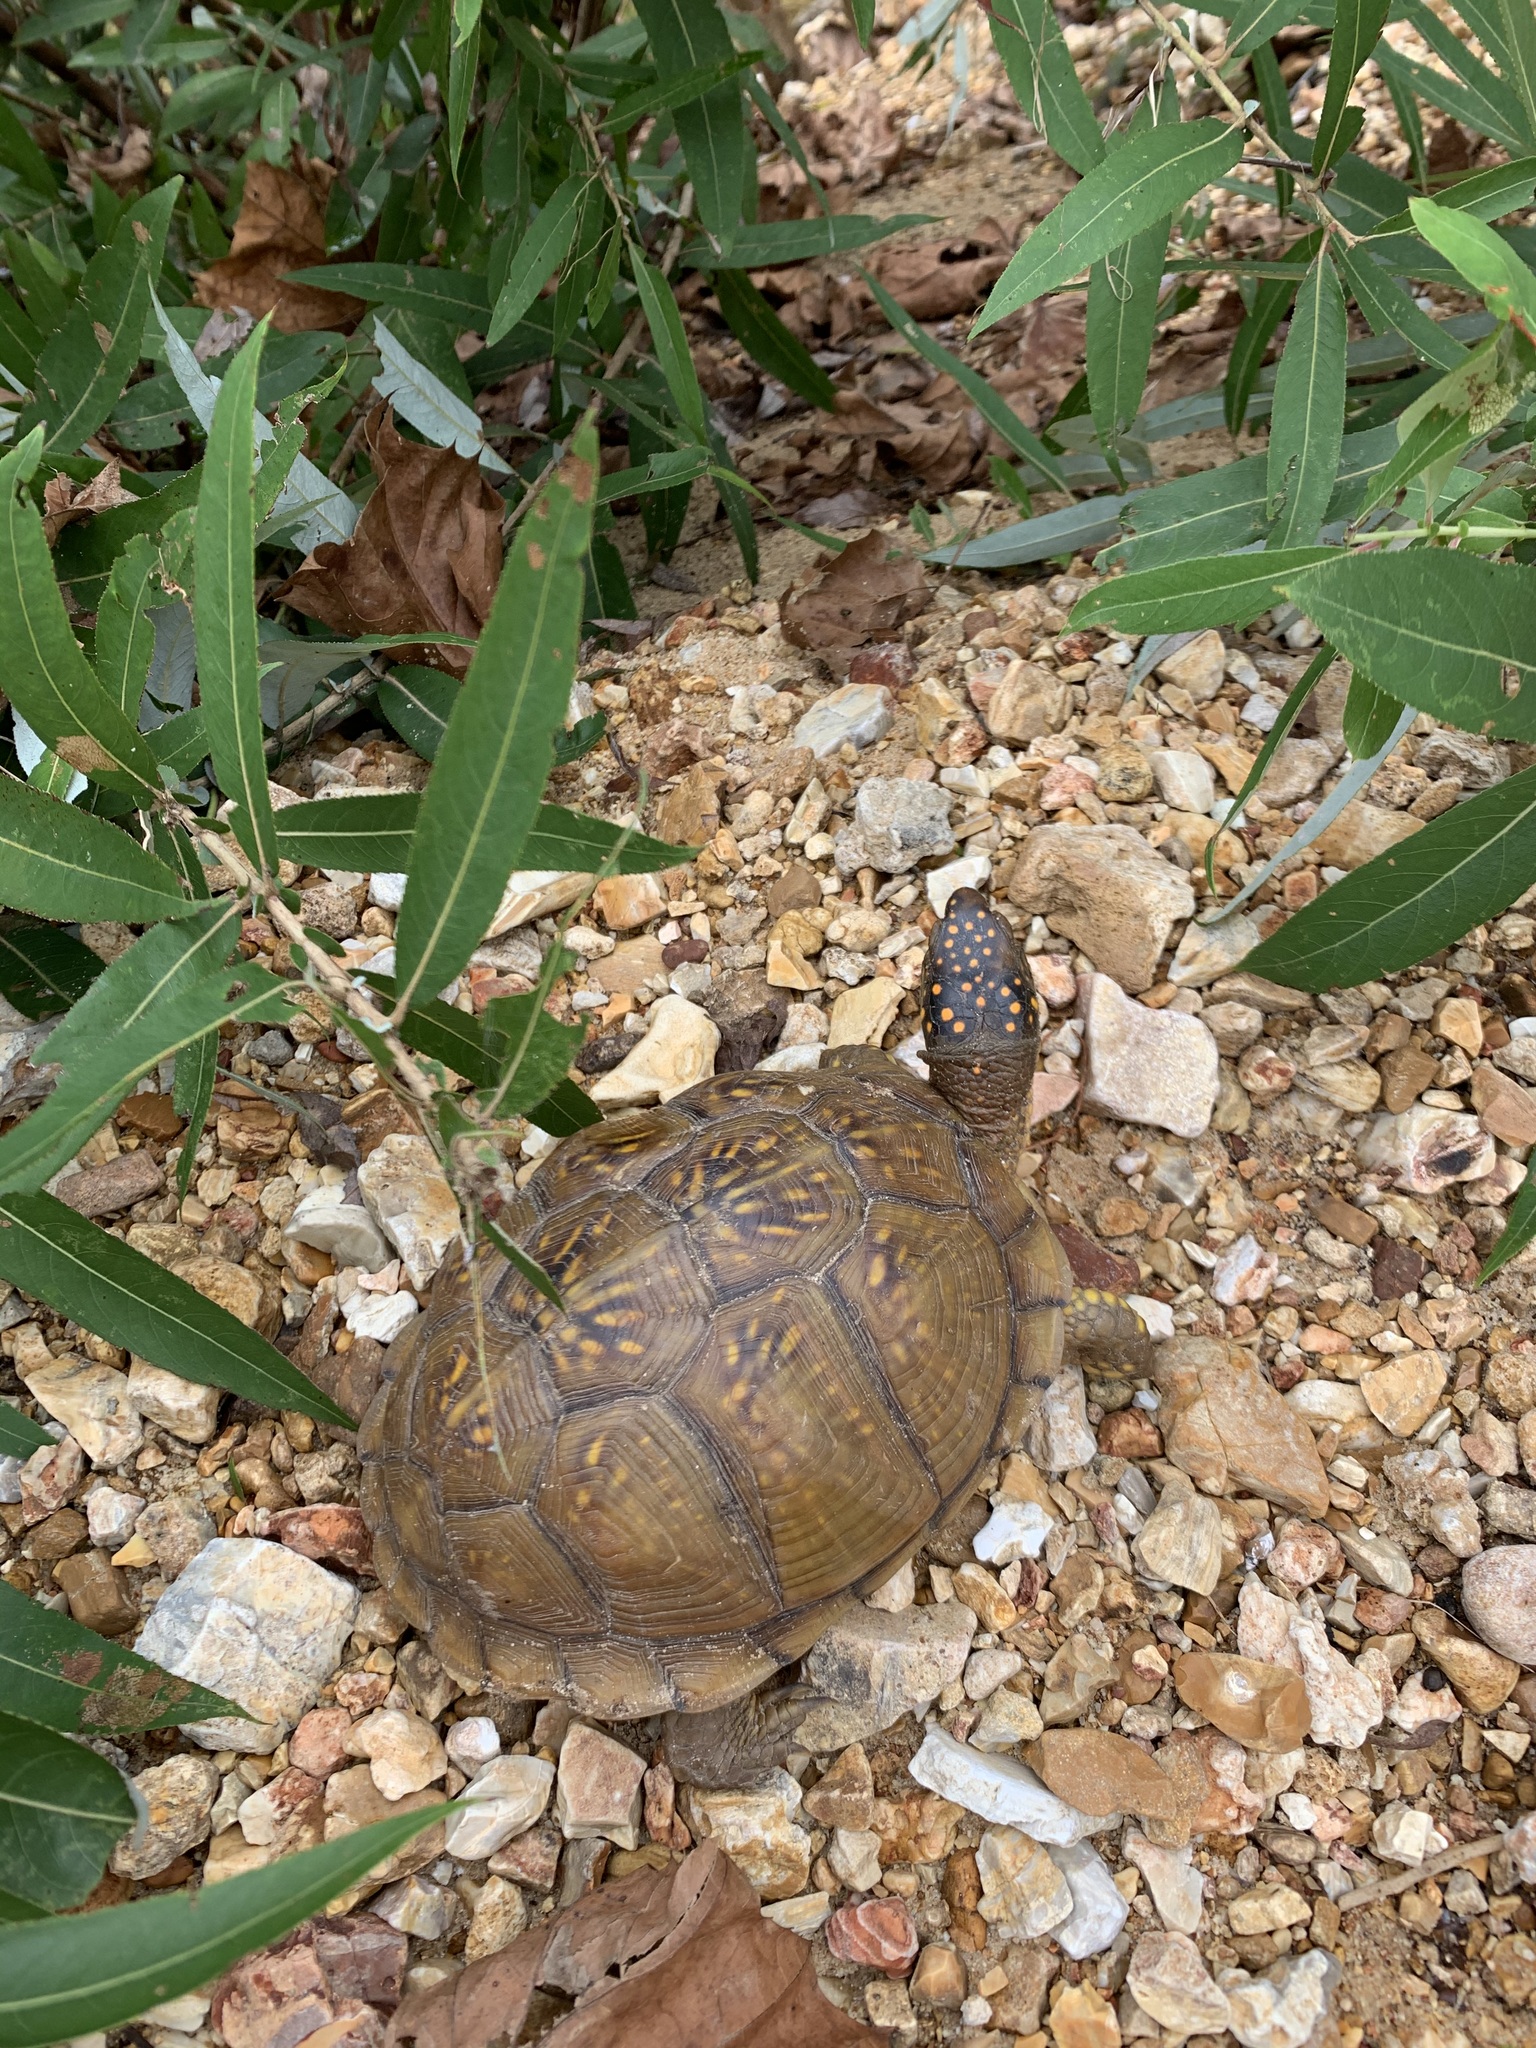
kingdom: Animalia
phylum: Chordata
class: Testudines
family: Emydidae
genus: Terrapene
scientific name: Terrapene carolina
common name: Common box turtle
